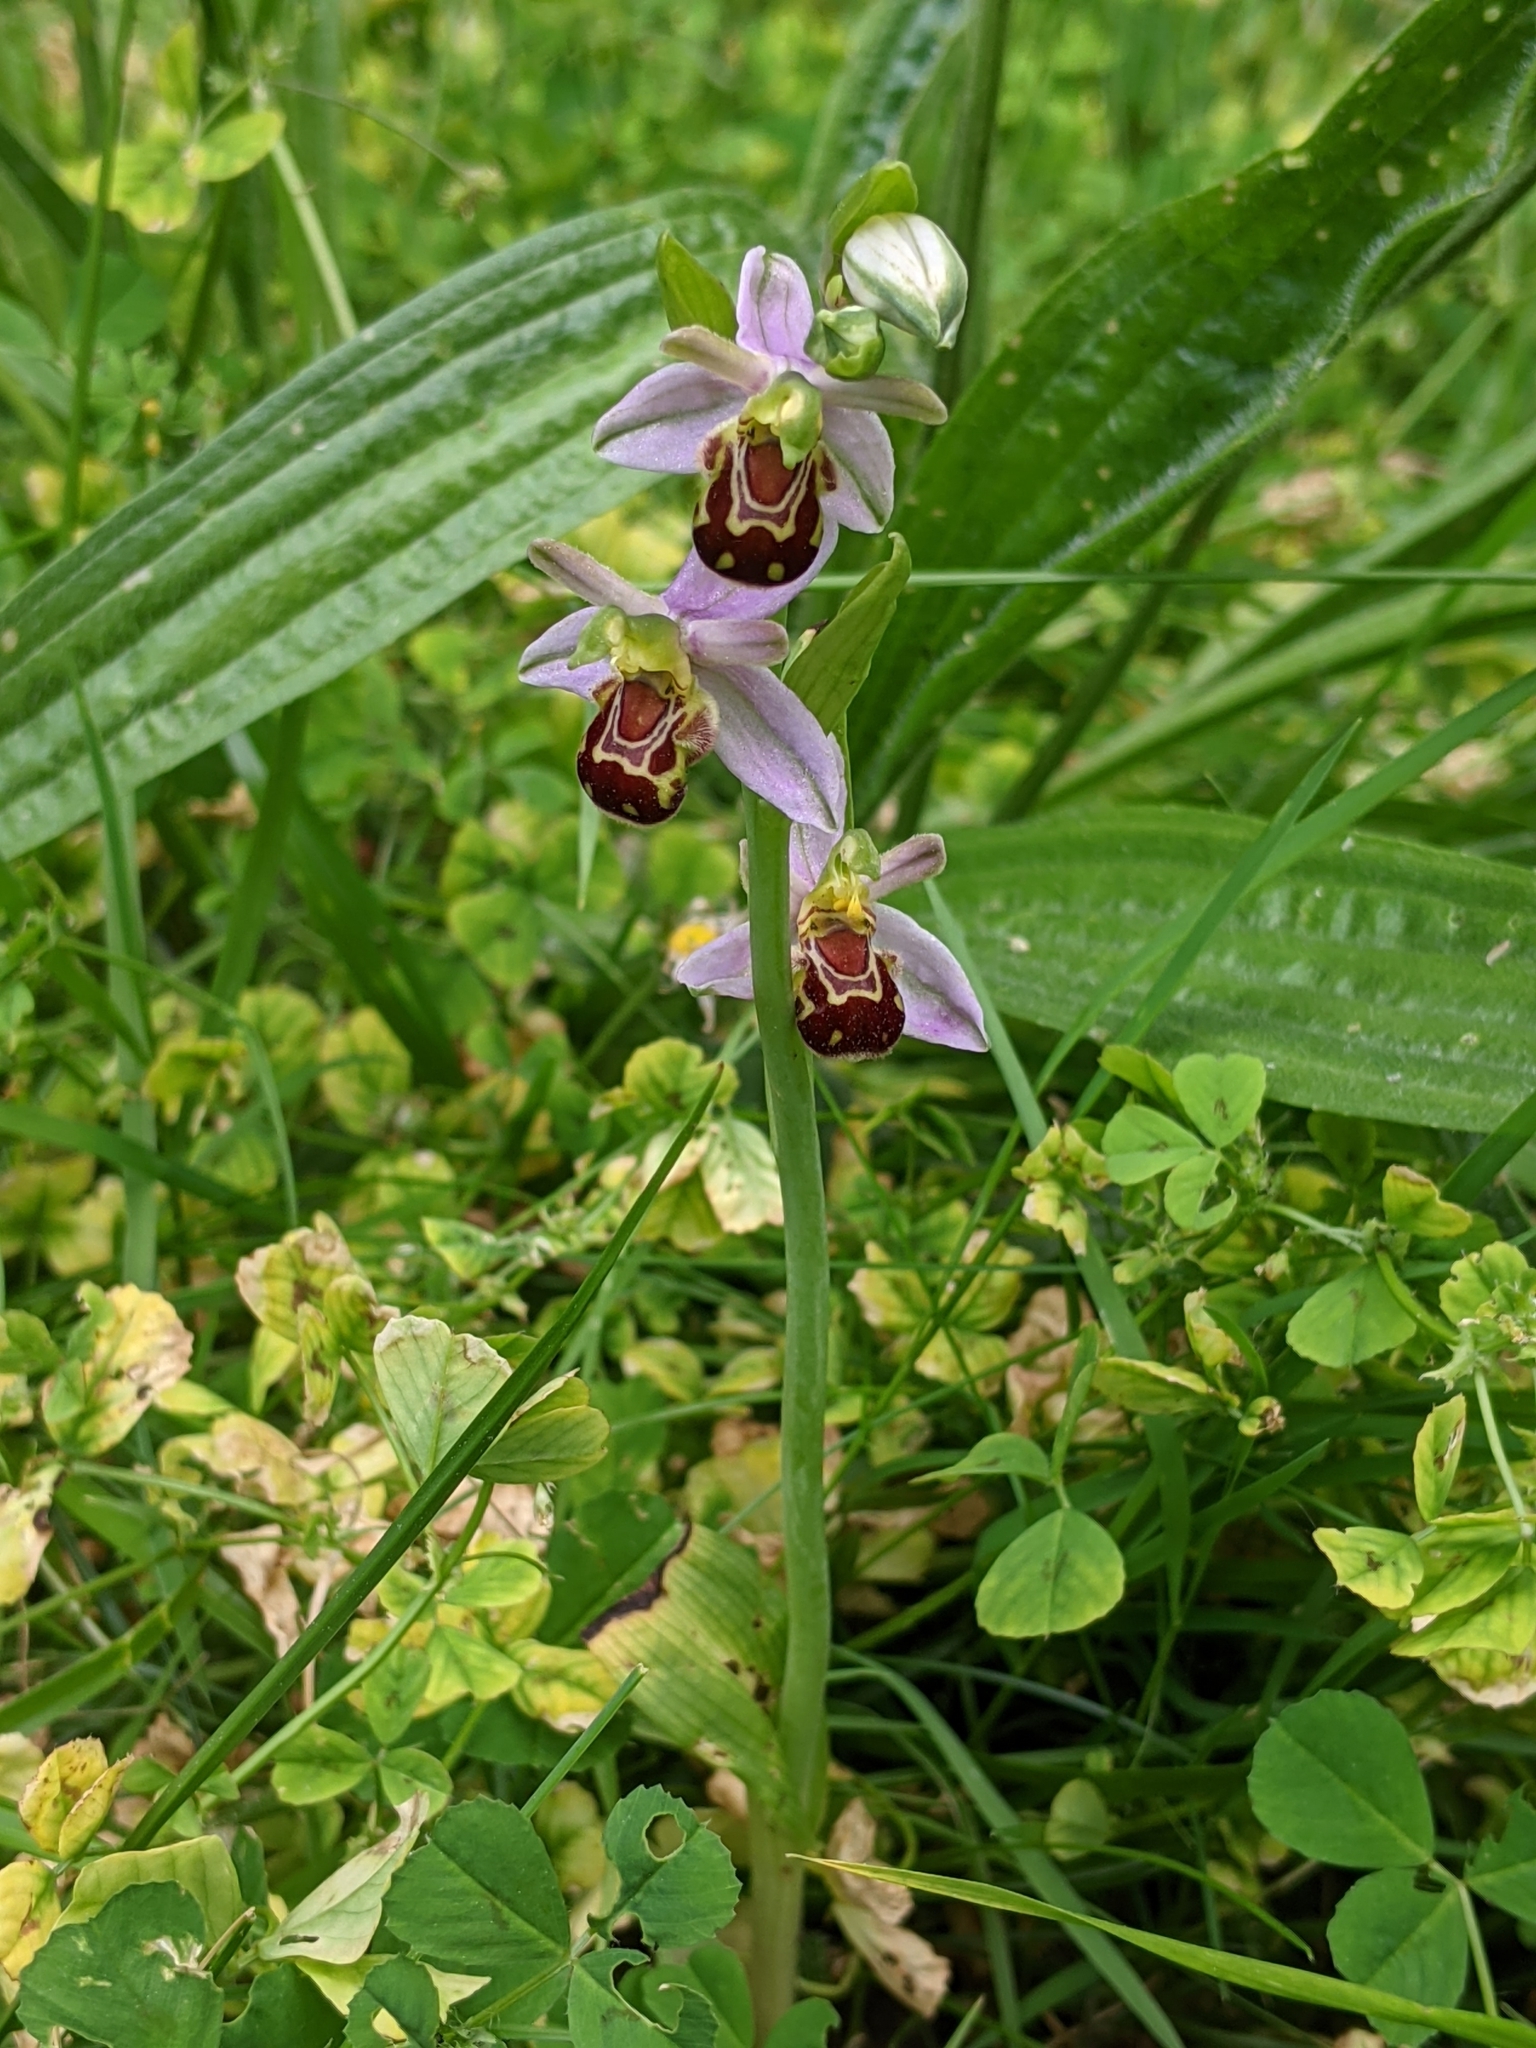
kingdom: Plantae
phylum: Tracheophyta
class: Liliopsida
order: Asparagales
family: Orchidaceae
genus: Ophrys
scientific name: Ophrys apifera
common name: Bee orchid
